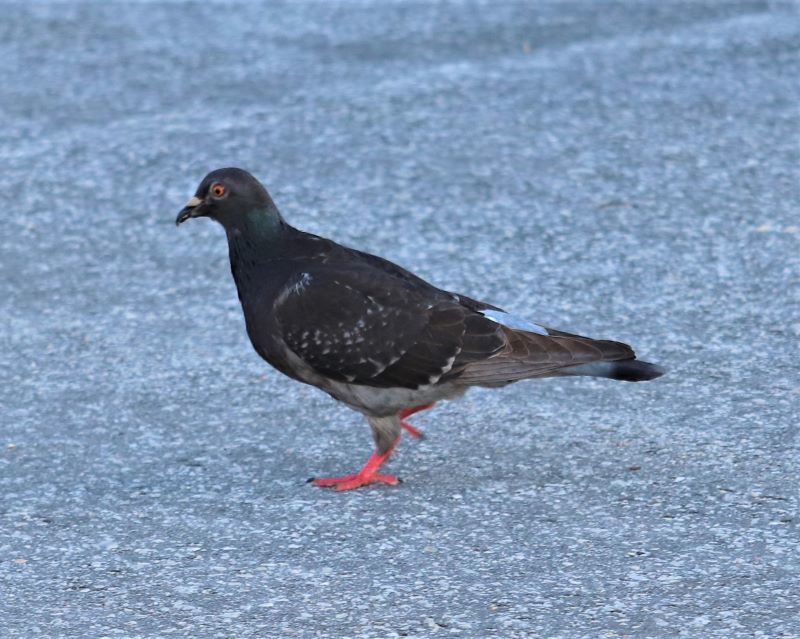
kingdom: Animalia
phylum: Chordata
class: Aves
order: Columbiformes
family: Columbidae
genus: Columba
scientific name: Columba livia
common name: Rock pigeon
